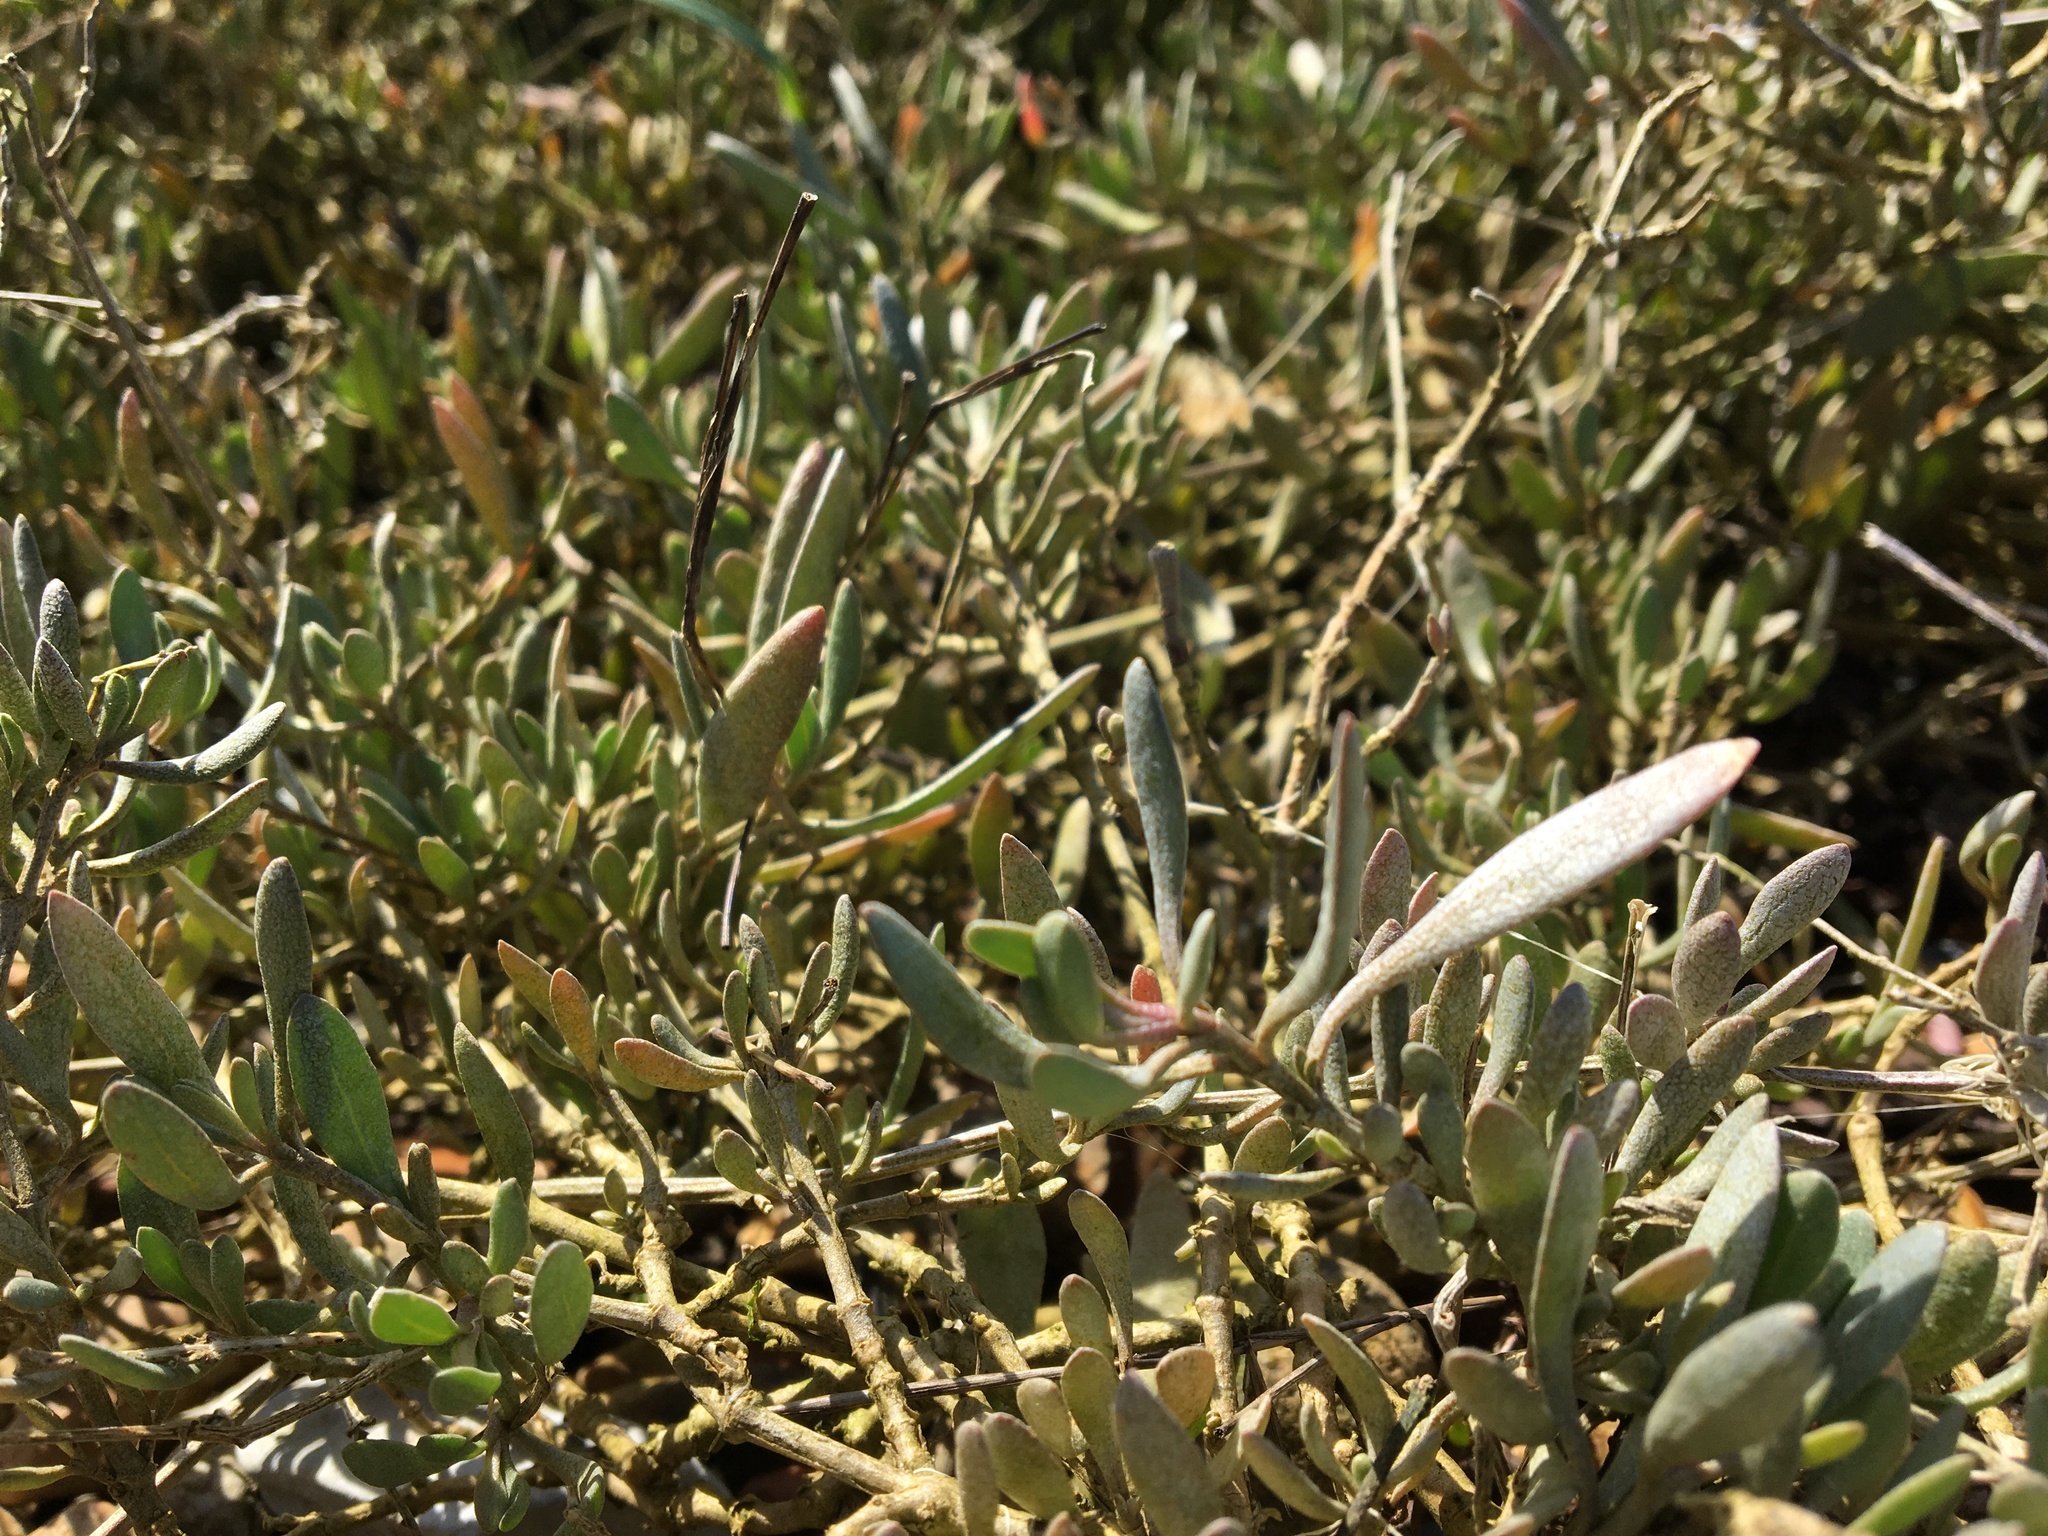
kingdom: Plantae
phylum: Tracheophyta
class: Magnoliopsida
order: Caryophyllales
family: Amaranthaceae
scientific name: Amaranthaceae
